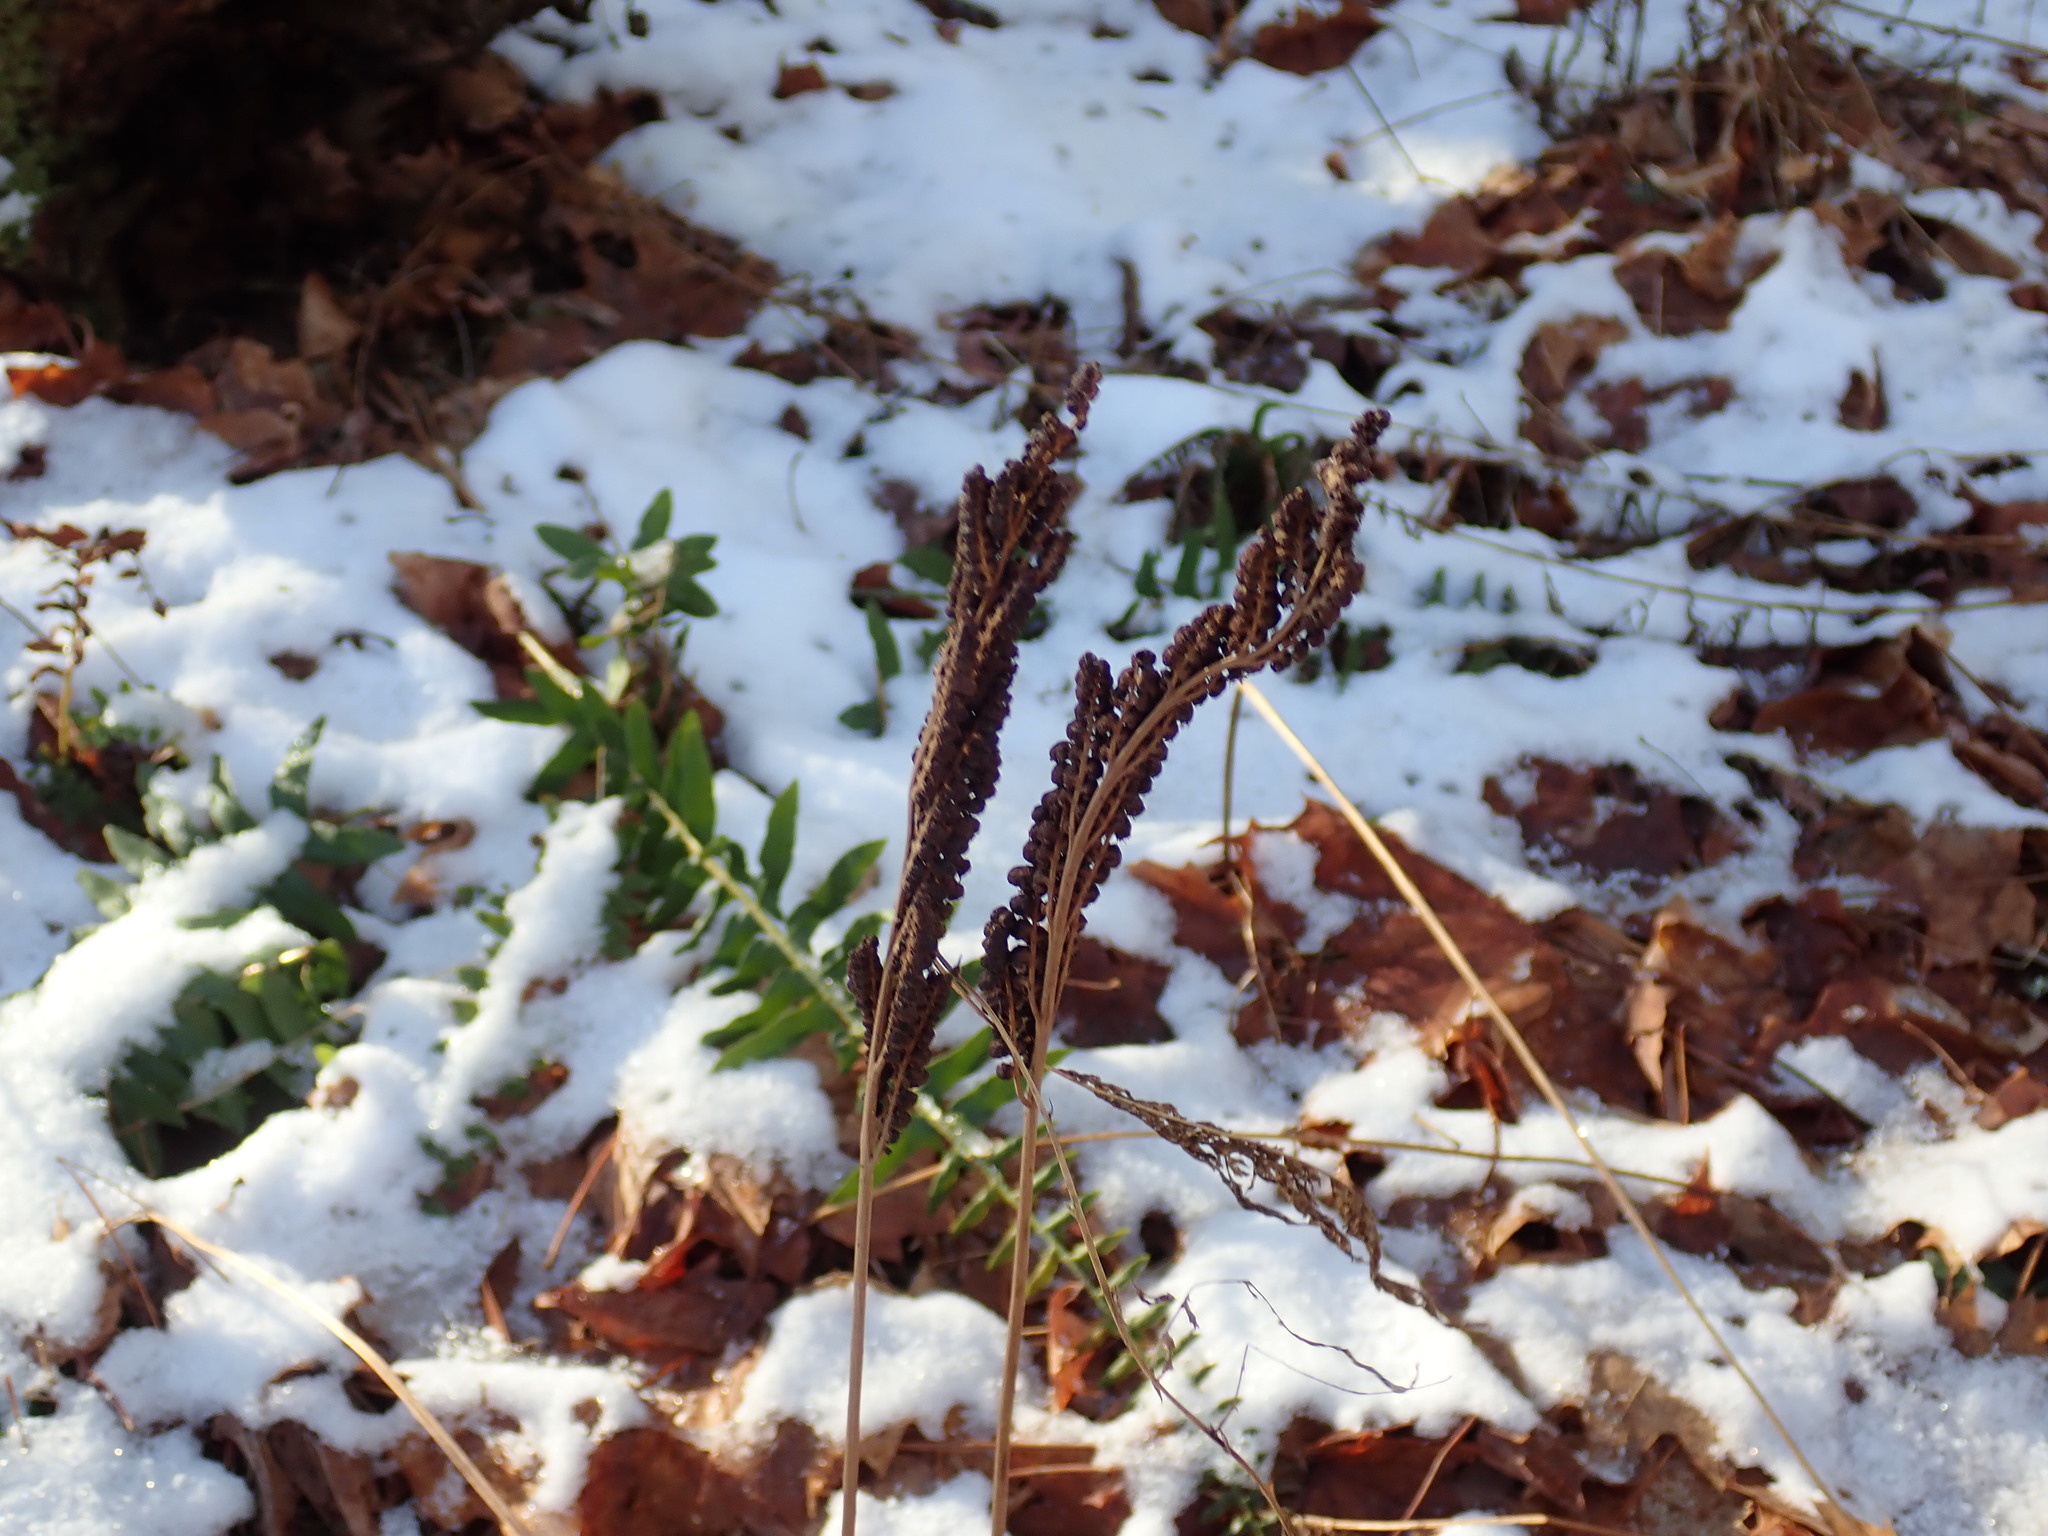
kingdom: Plantae
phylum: Tracheophyta
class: Polypodiopsida
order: Polypodiales
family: Onocleaceae
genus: Onoclea
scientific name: Onoclea sensibilis
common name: Sensitive fern
